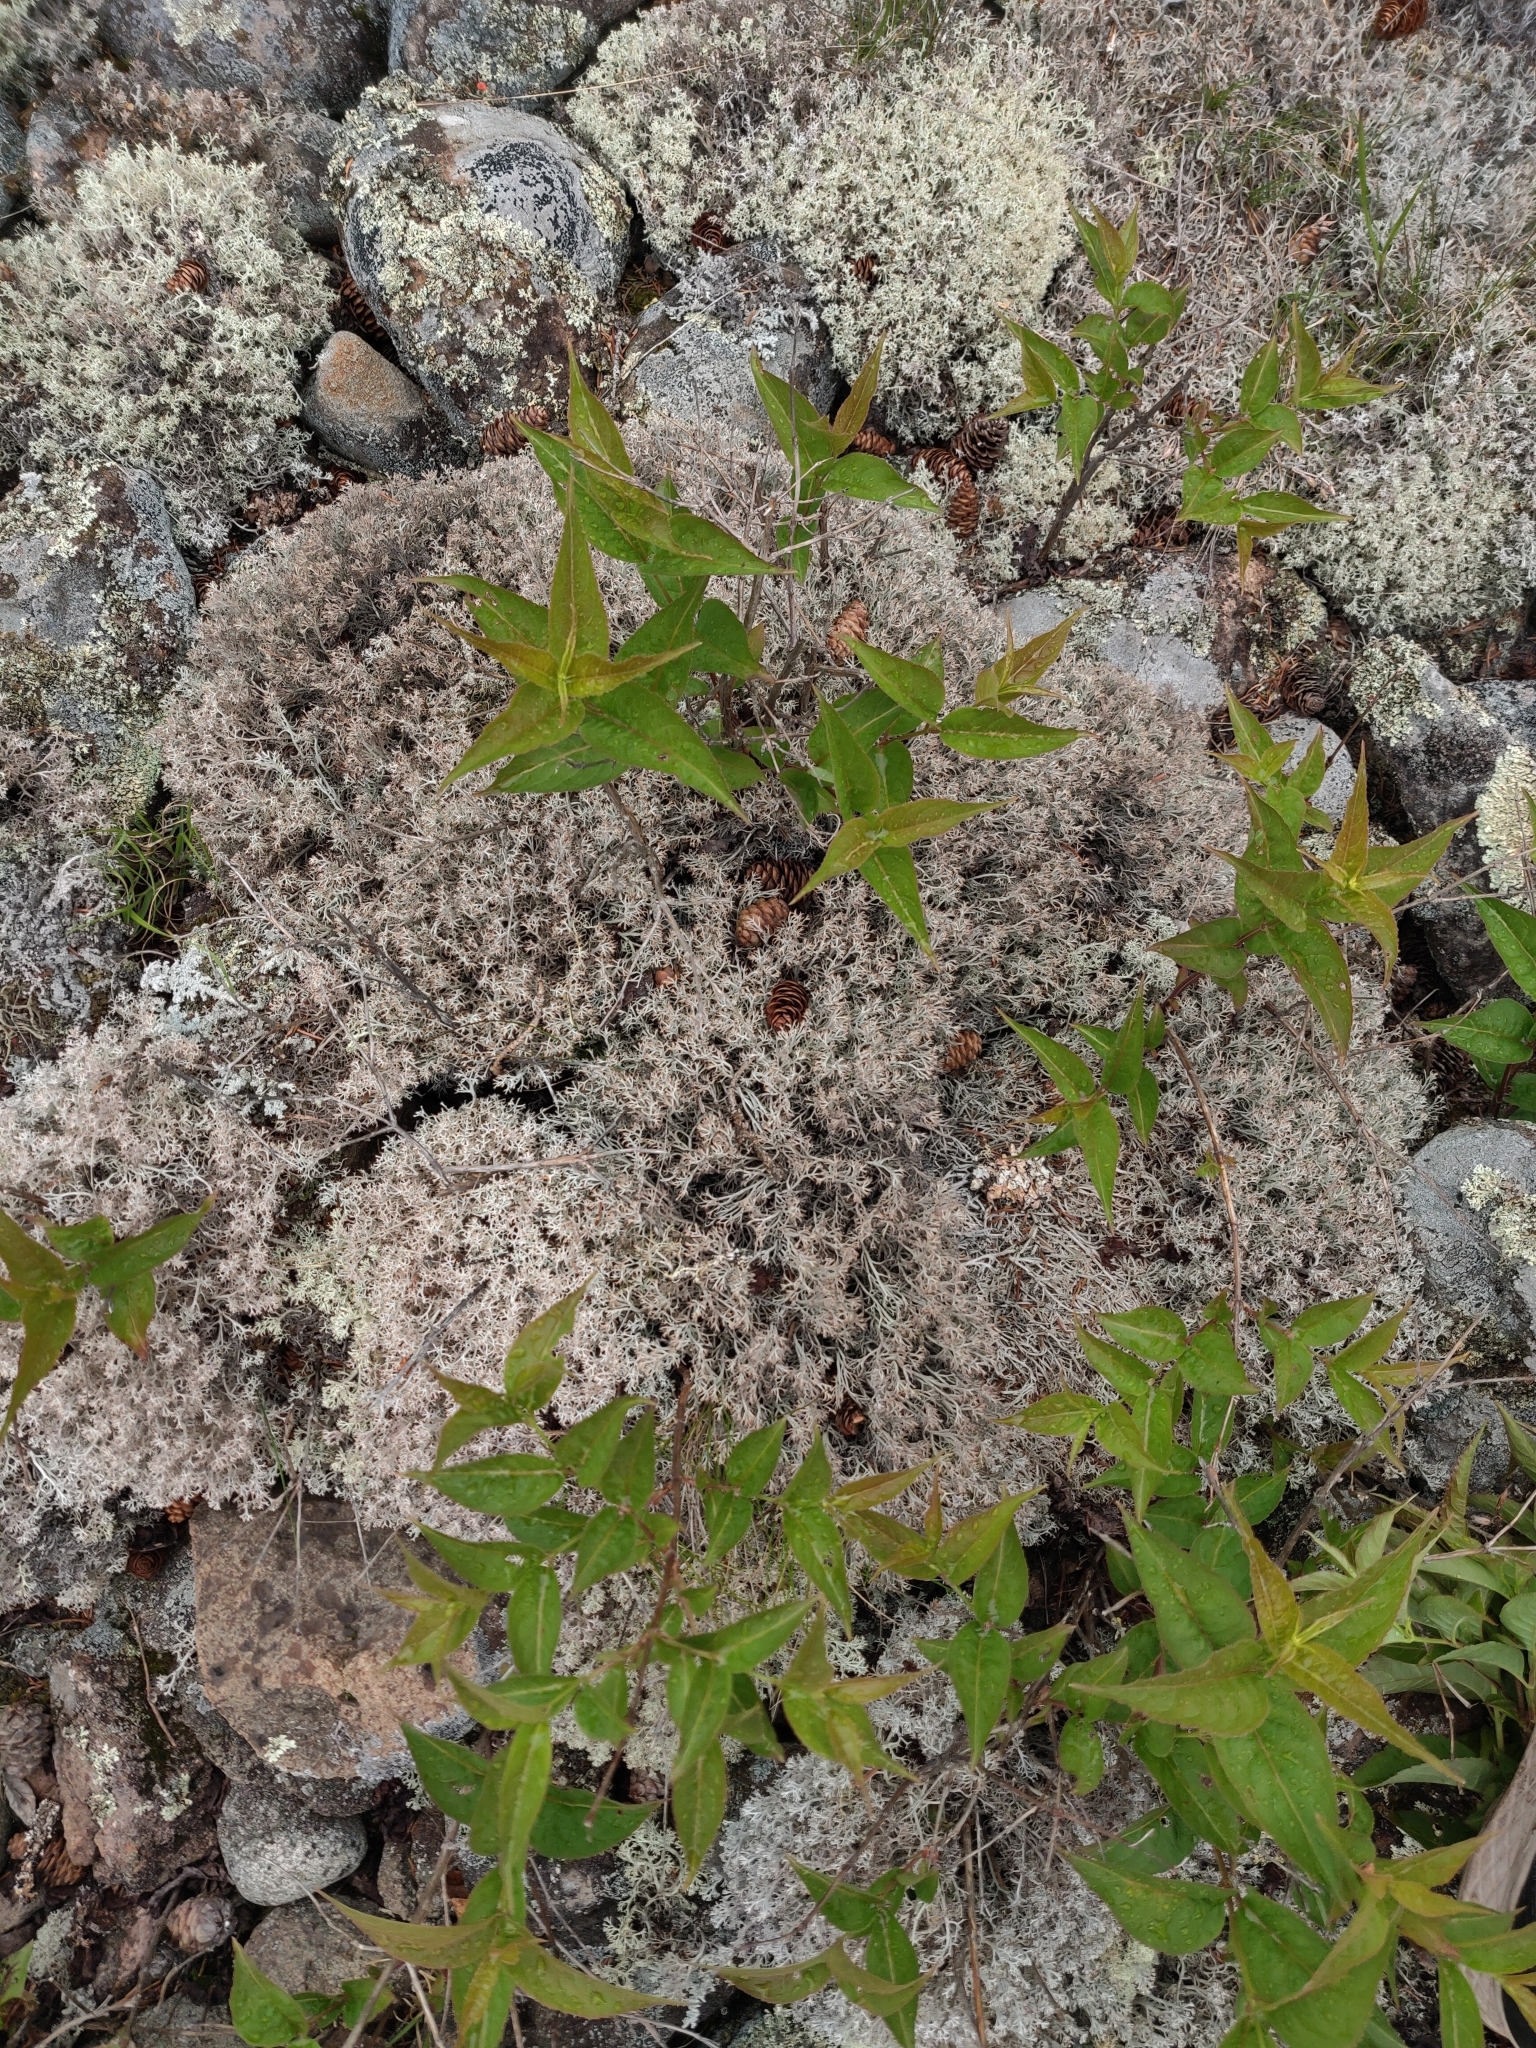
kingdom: Fungi
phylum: Ascomycota
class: Lecanoromycetes
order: Lecanorales
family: Cladoniaceae
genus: Cladonia
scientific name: Cladonia rangiferina
